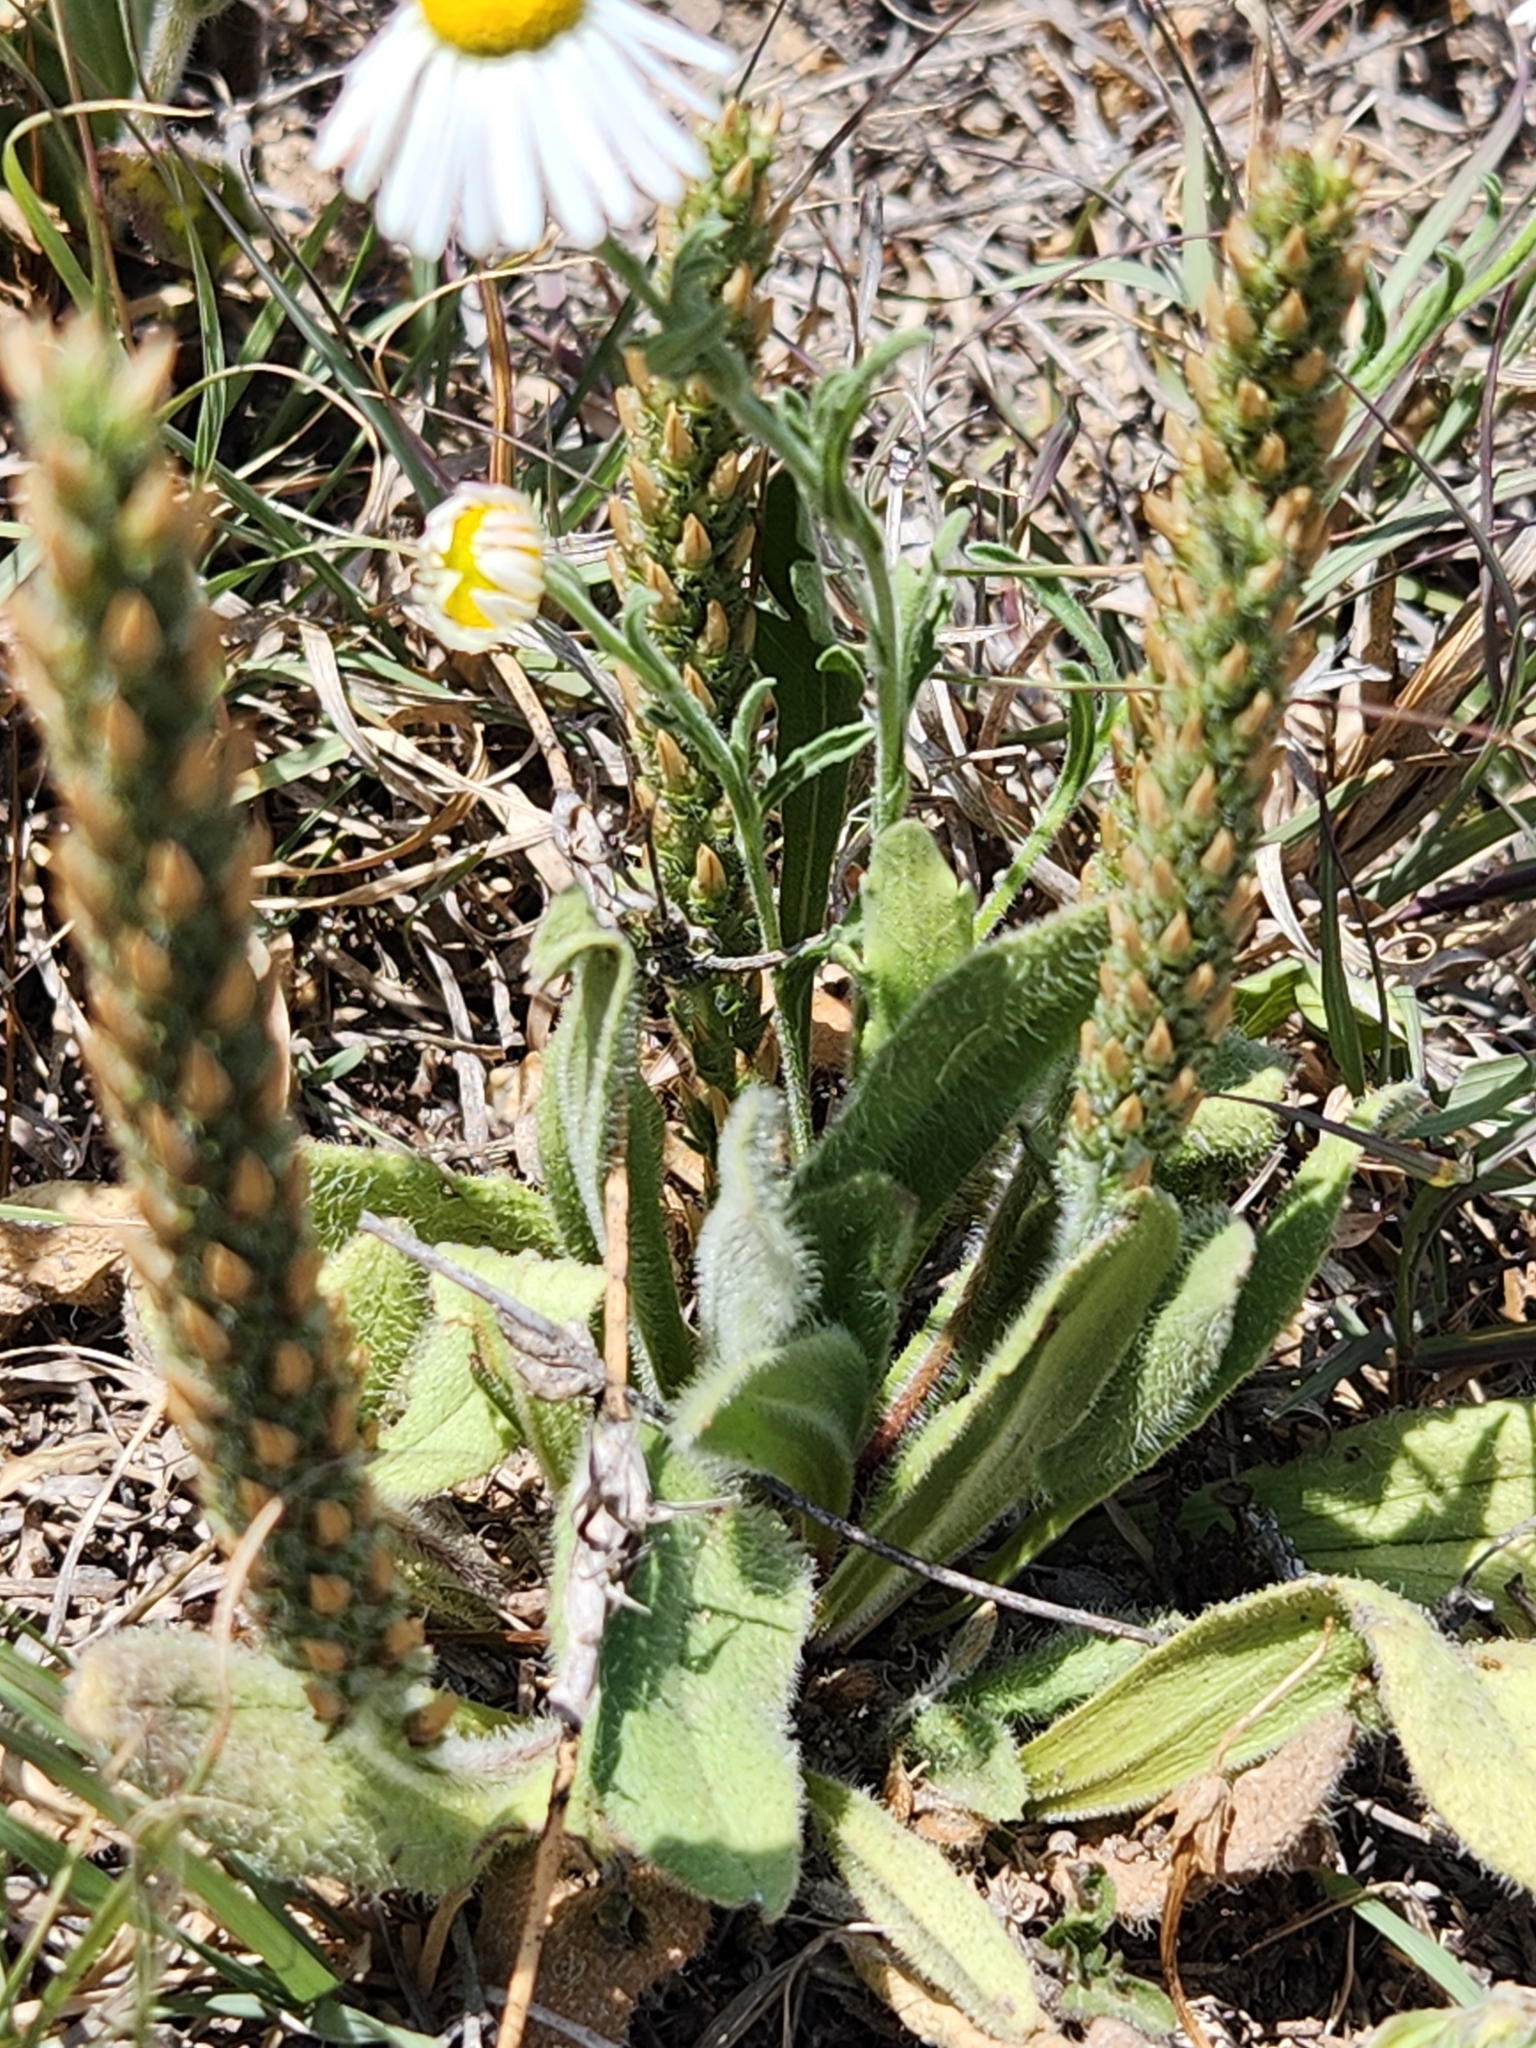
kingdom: Plantae
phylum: Tracheophyta
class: Magnoliopsida
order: Lamiales
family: Plantaginaceae
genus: Plantago
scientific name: Plantago rhodosperma
